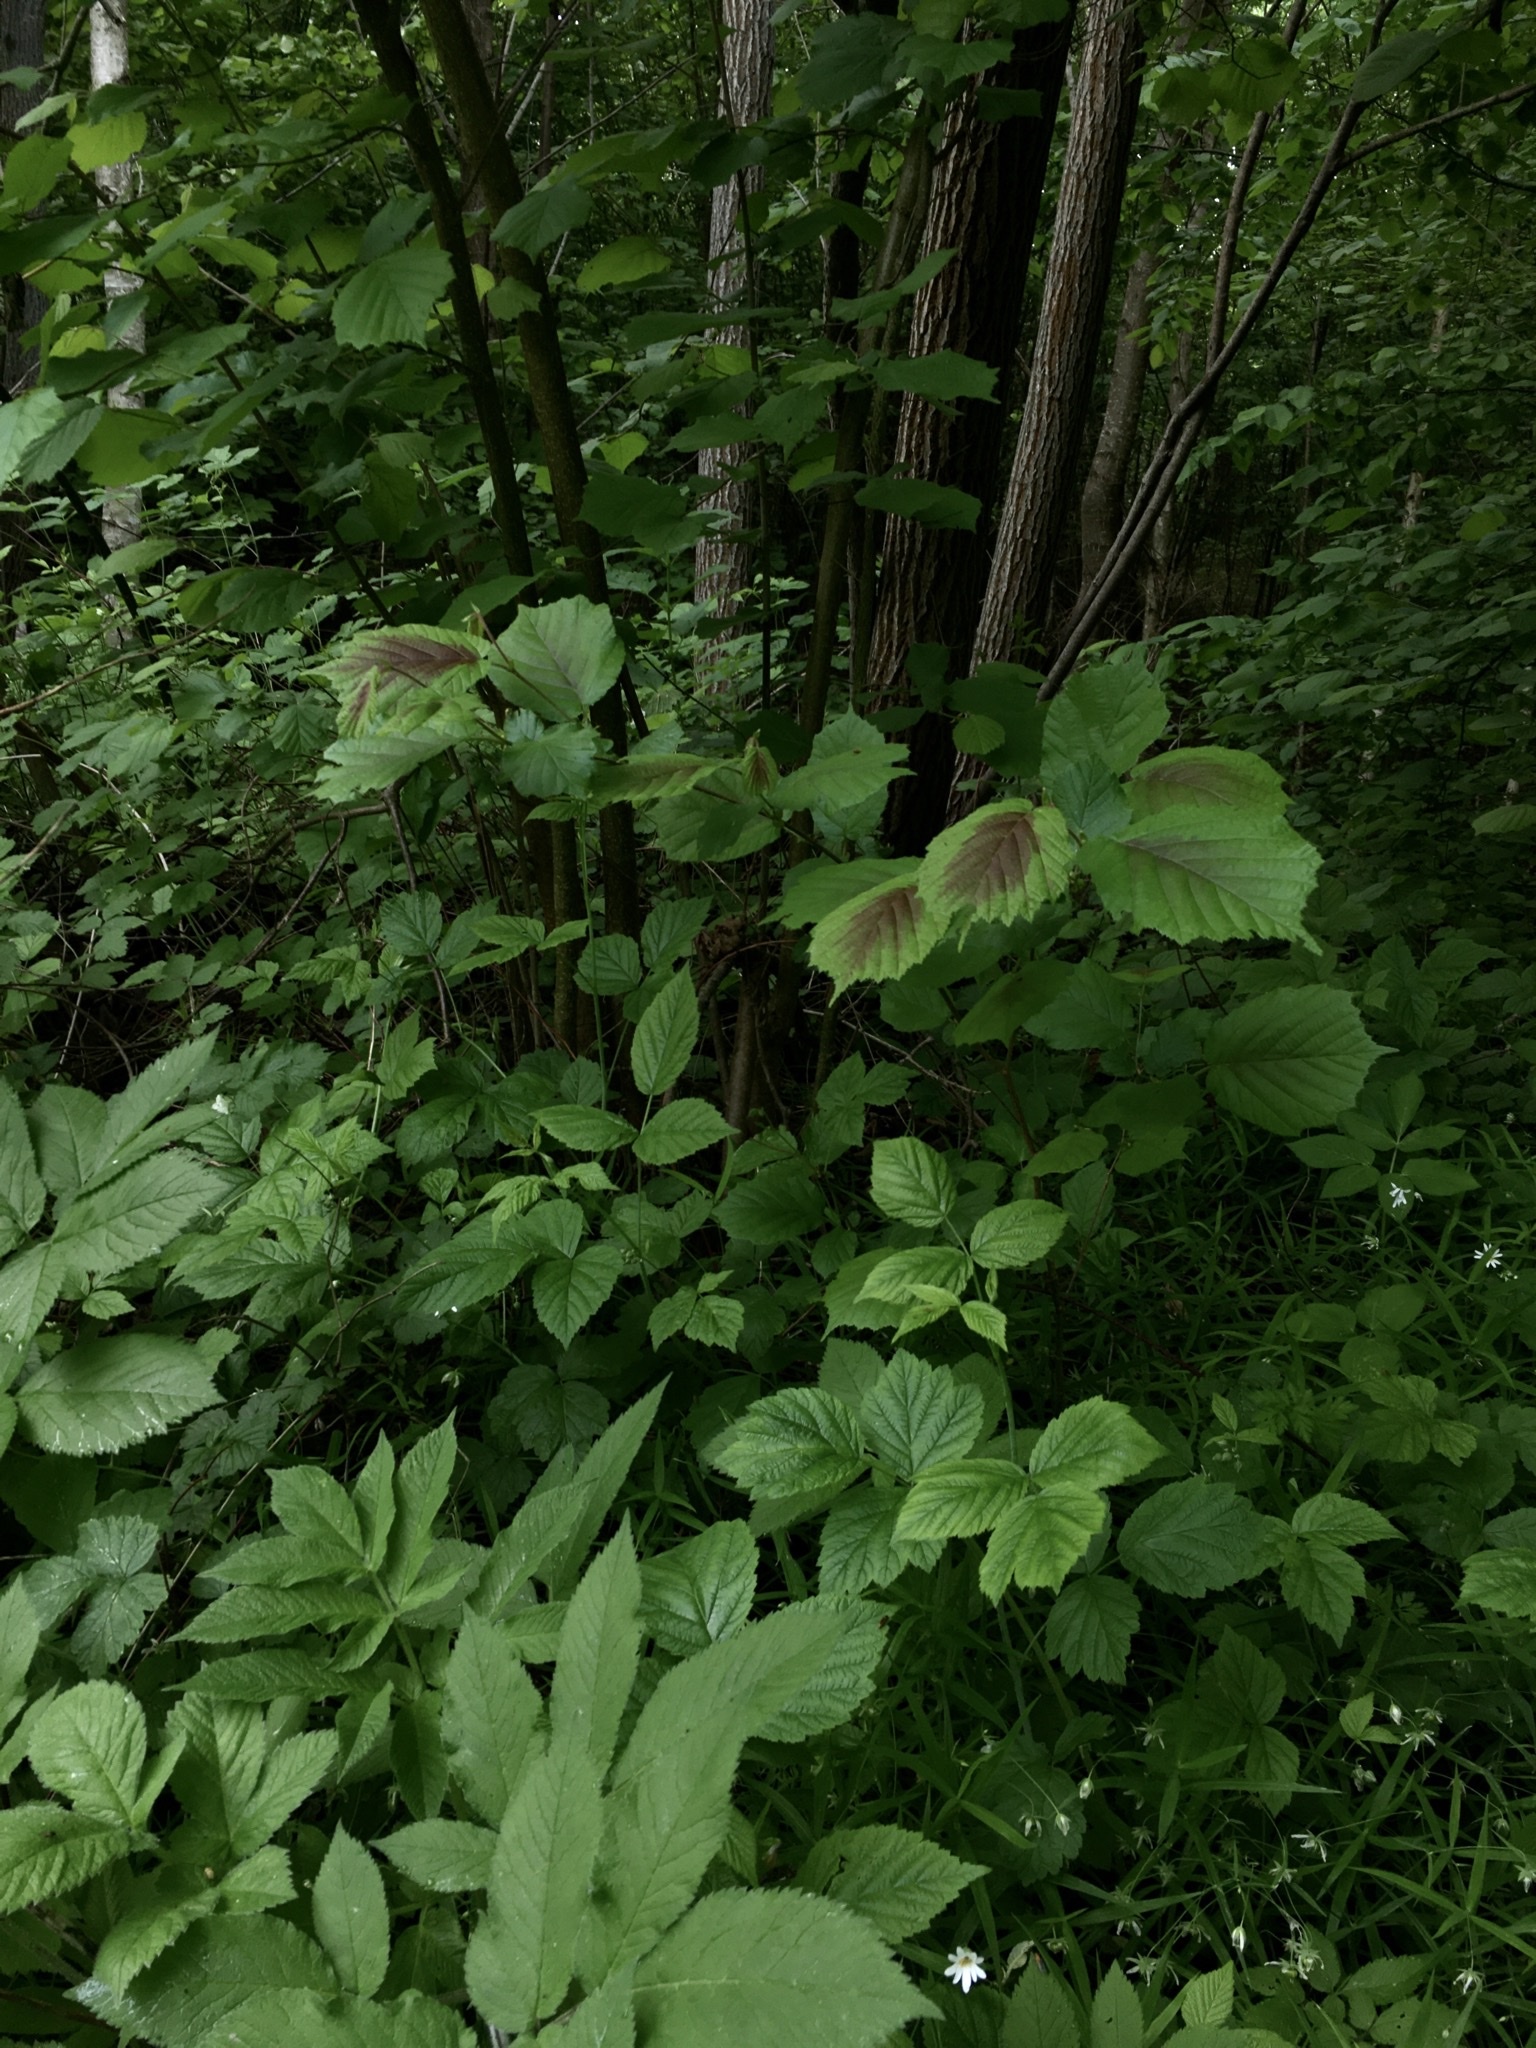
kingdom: Plantae
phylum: Tracheophyta
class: Magnoliopsida
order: Fagales
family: Betulaceae
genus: Corylus
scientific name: Corylus avellana
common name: European hazel
